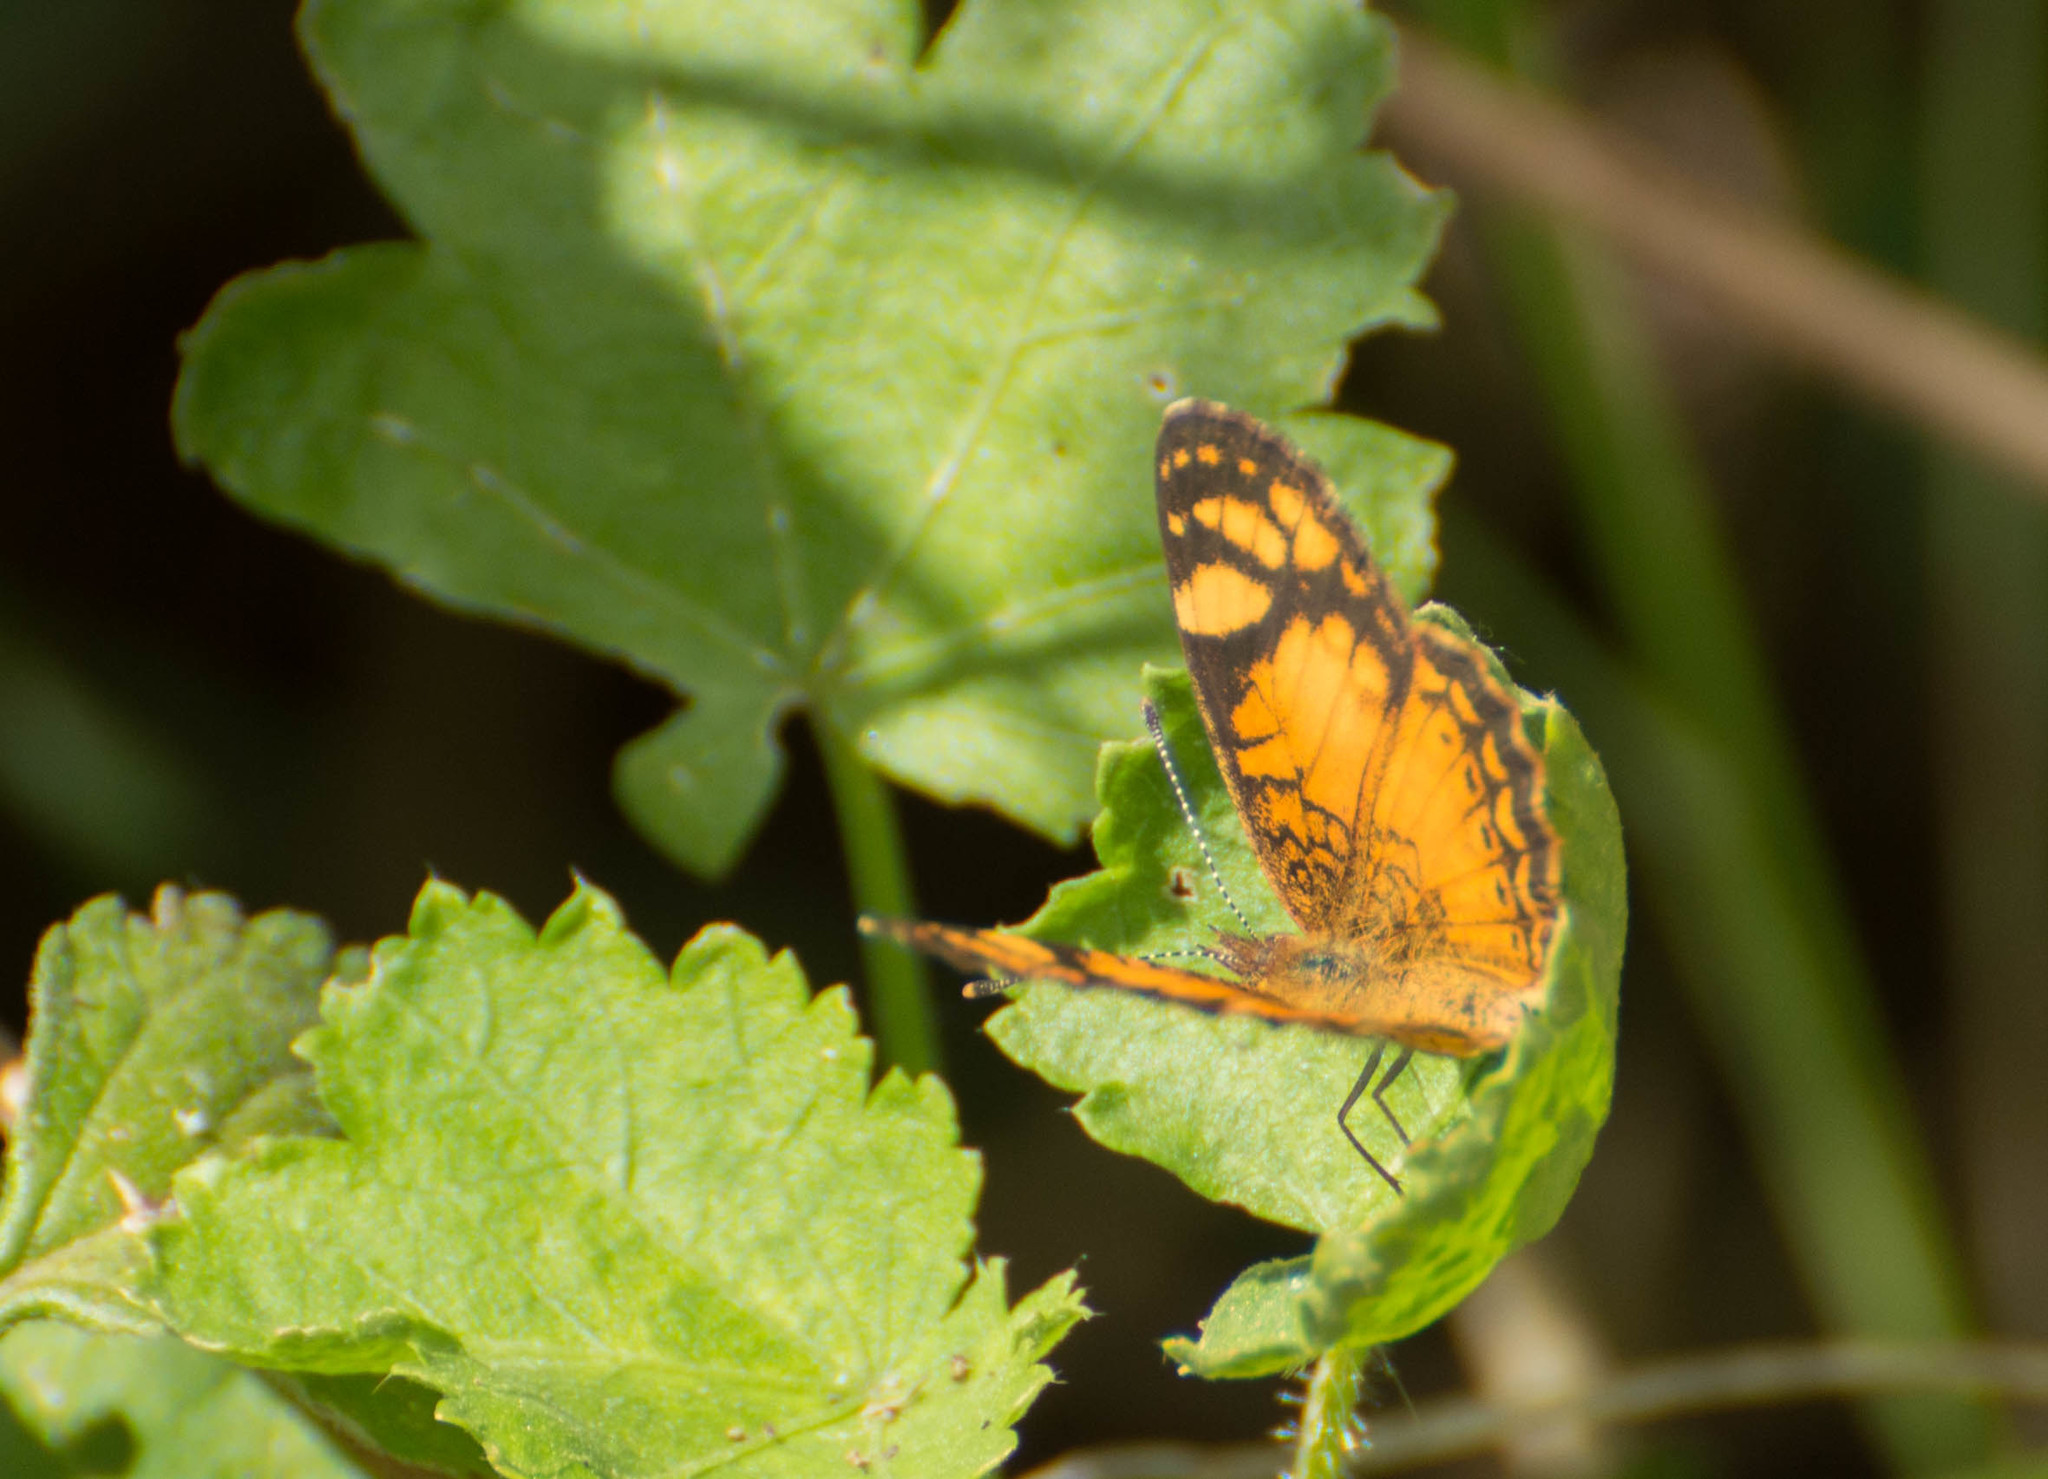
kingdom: Animalia
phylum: Arthropoda
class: Insecta
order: Lepidoptera
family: Nymphalidae
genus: Tegosa
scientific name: Tegosa orobia
